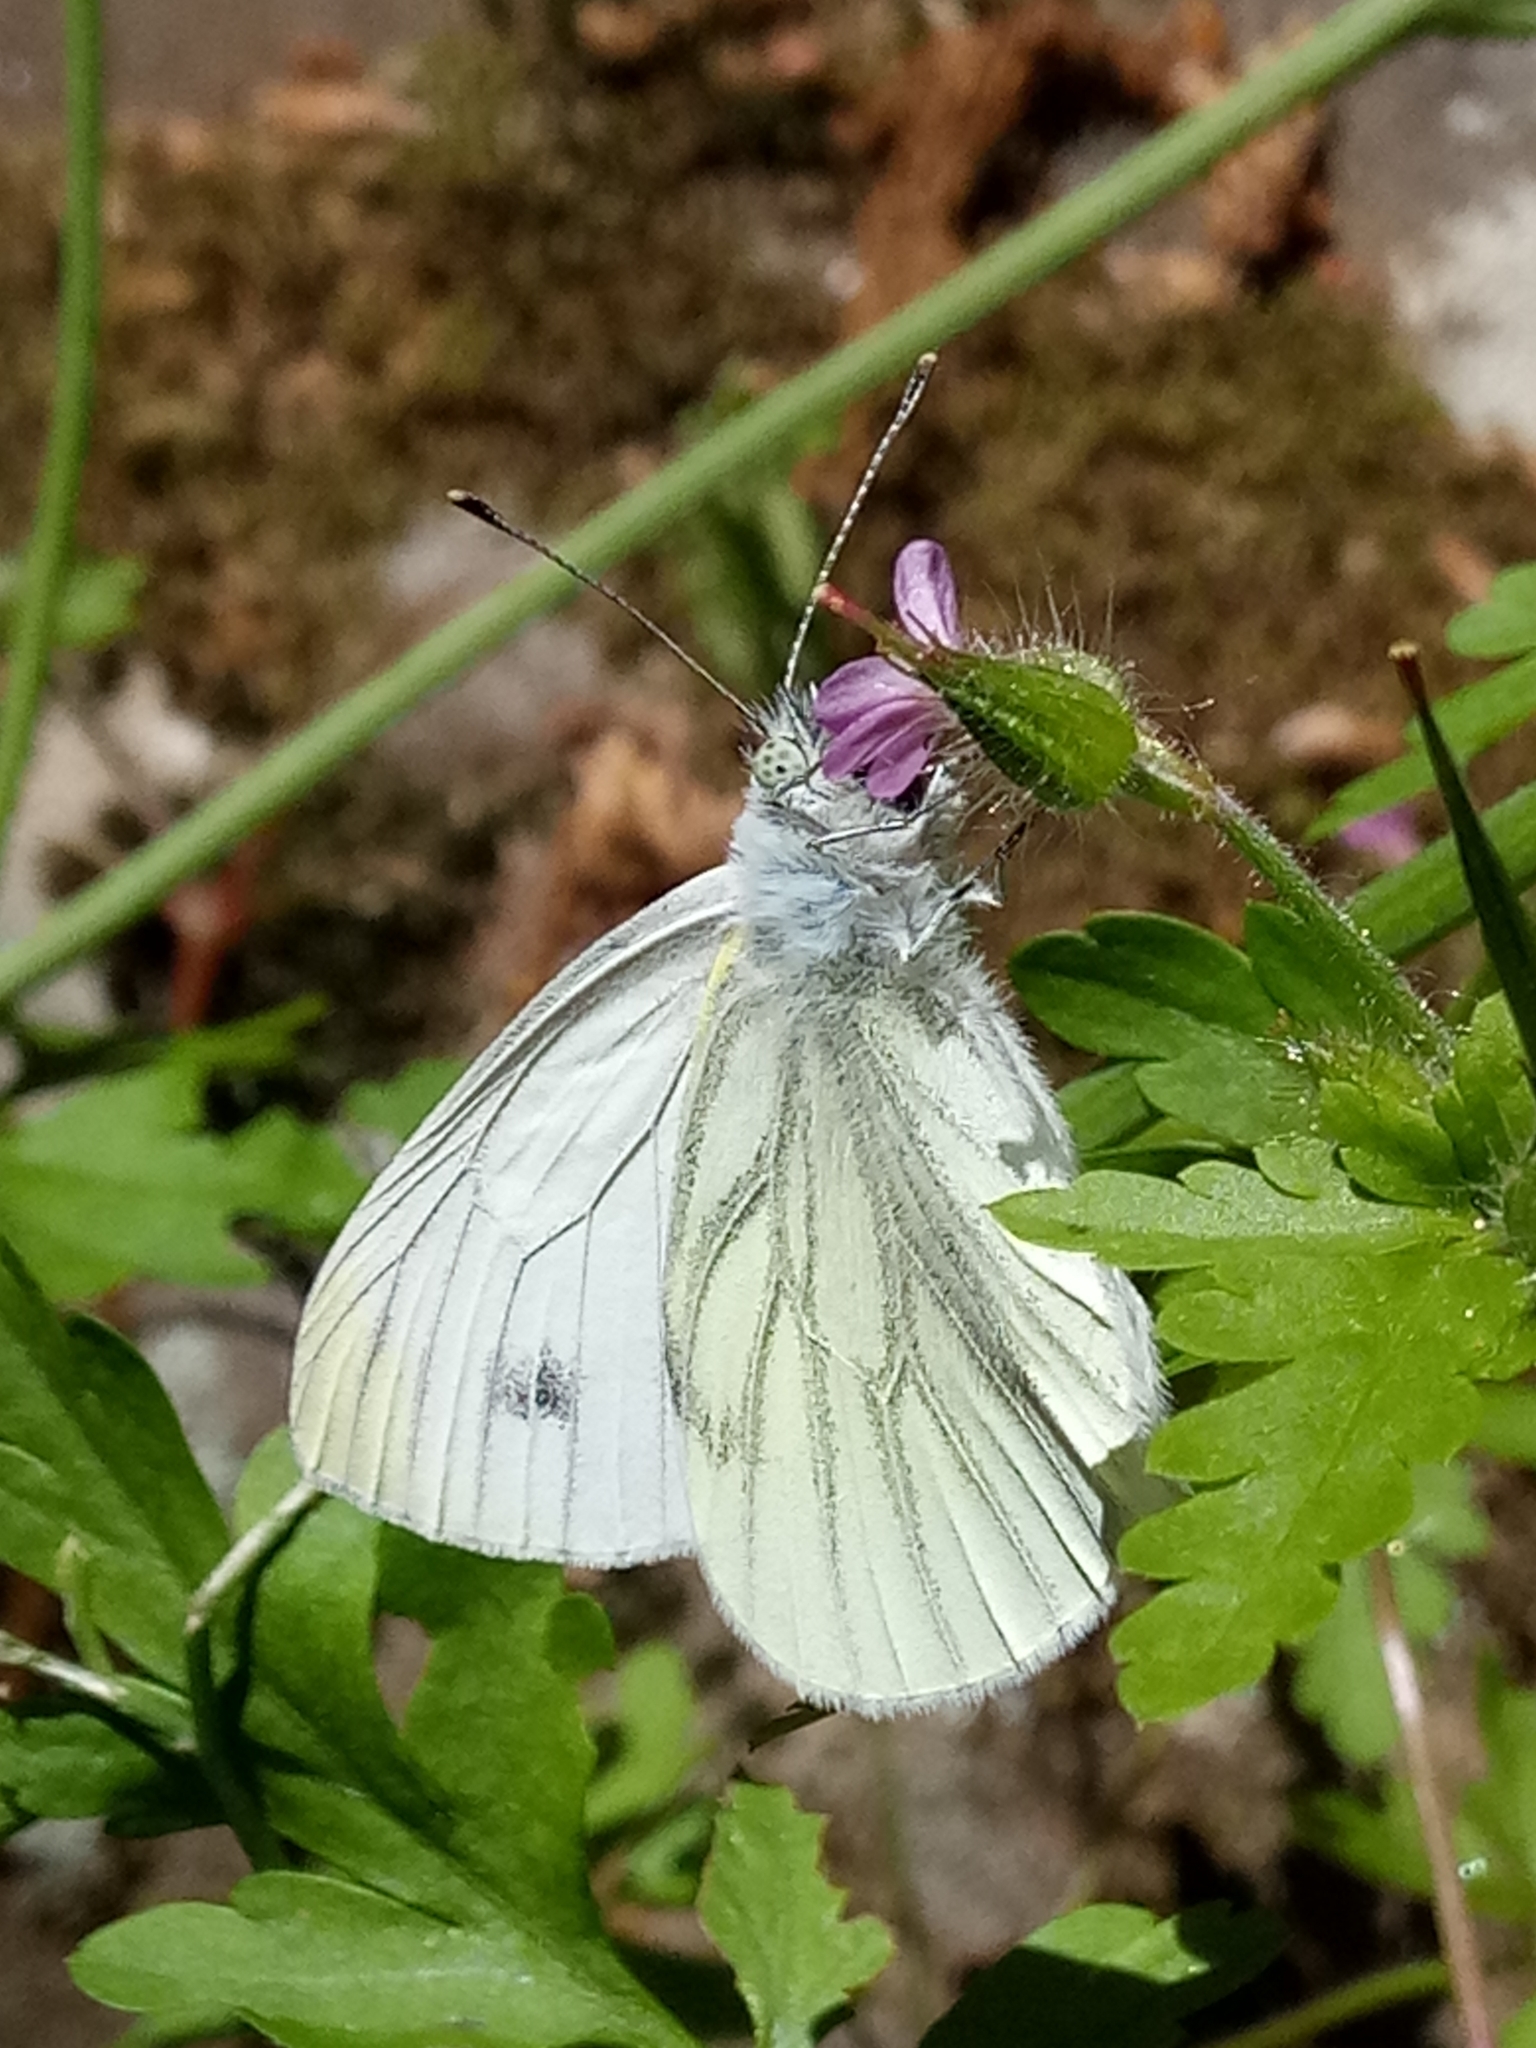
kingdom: Animalia
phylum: Arthropoda
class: Insecta
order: Lepidoptera
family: Pieridae
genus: Pieris
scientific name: Pieris napi
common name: Green-veined white
